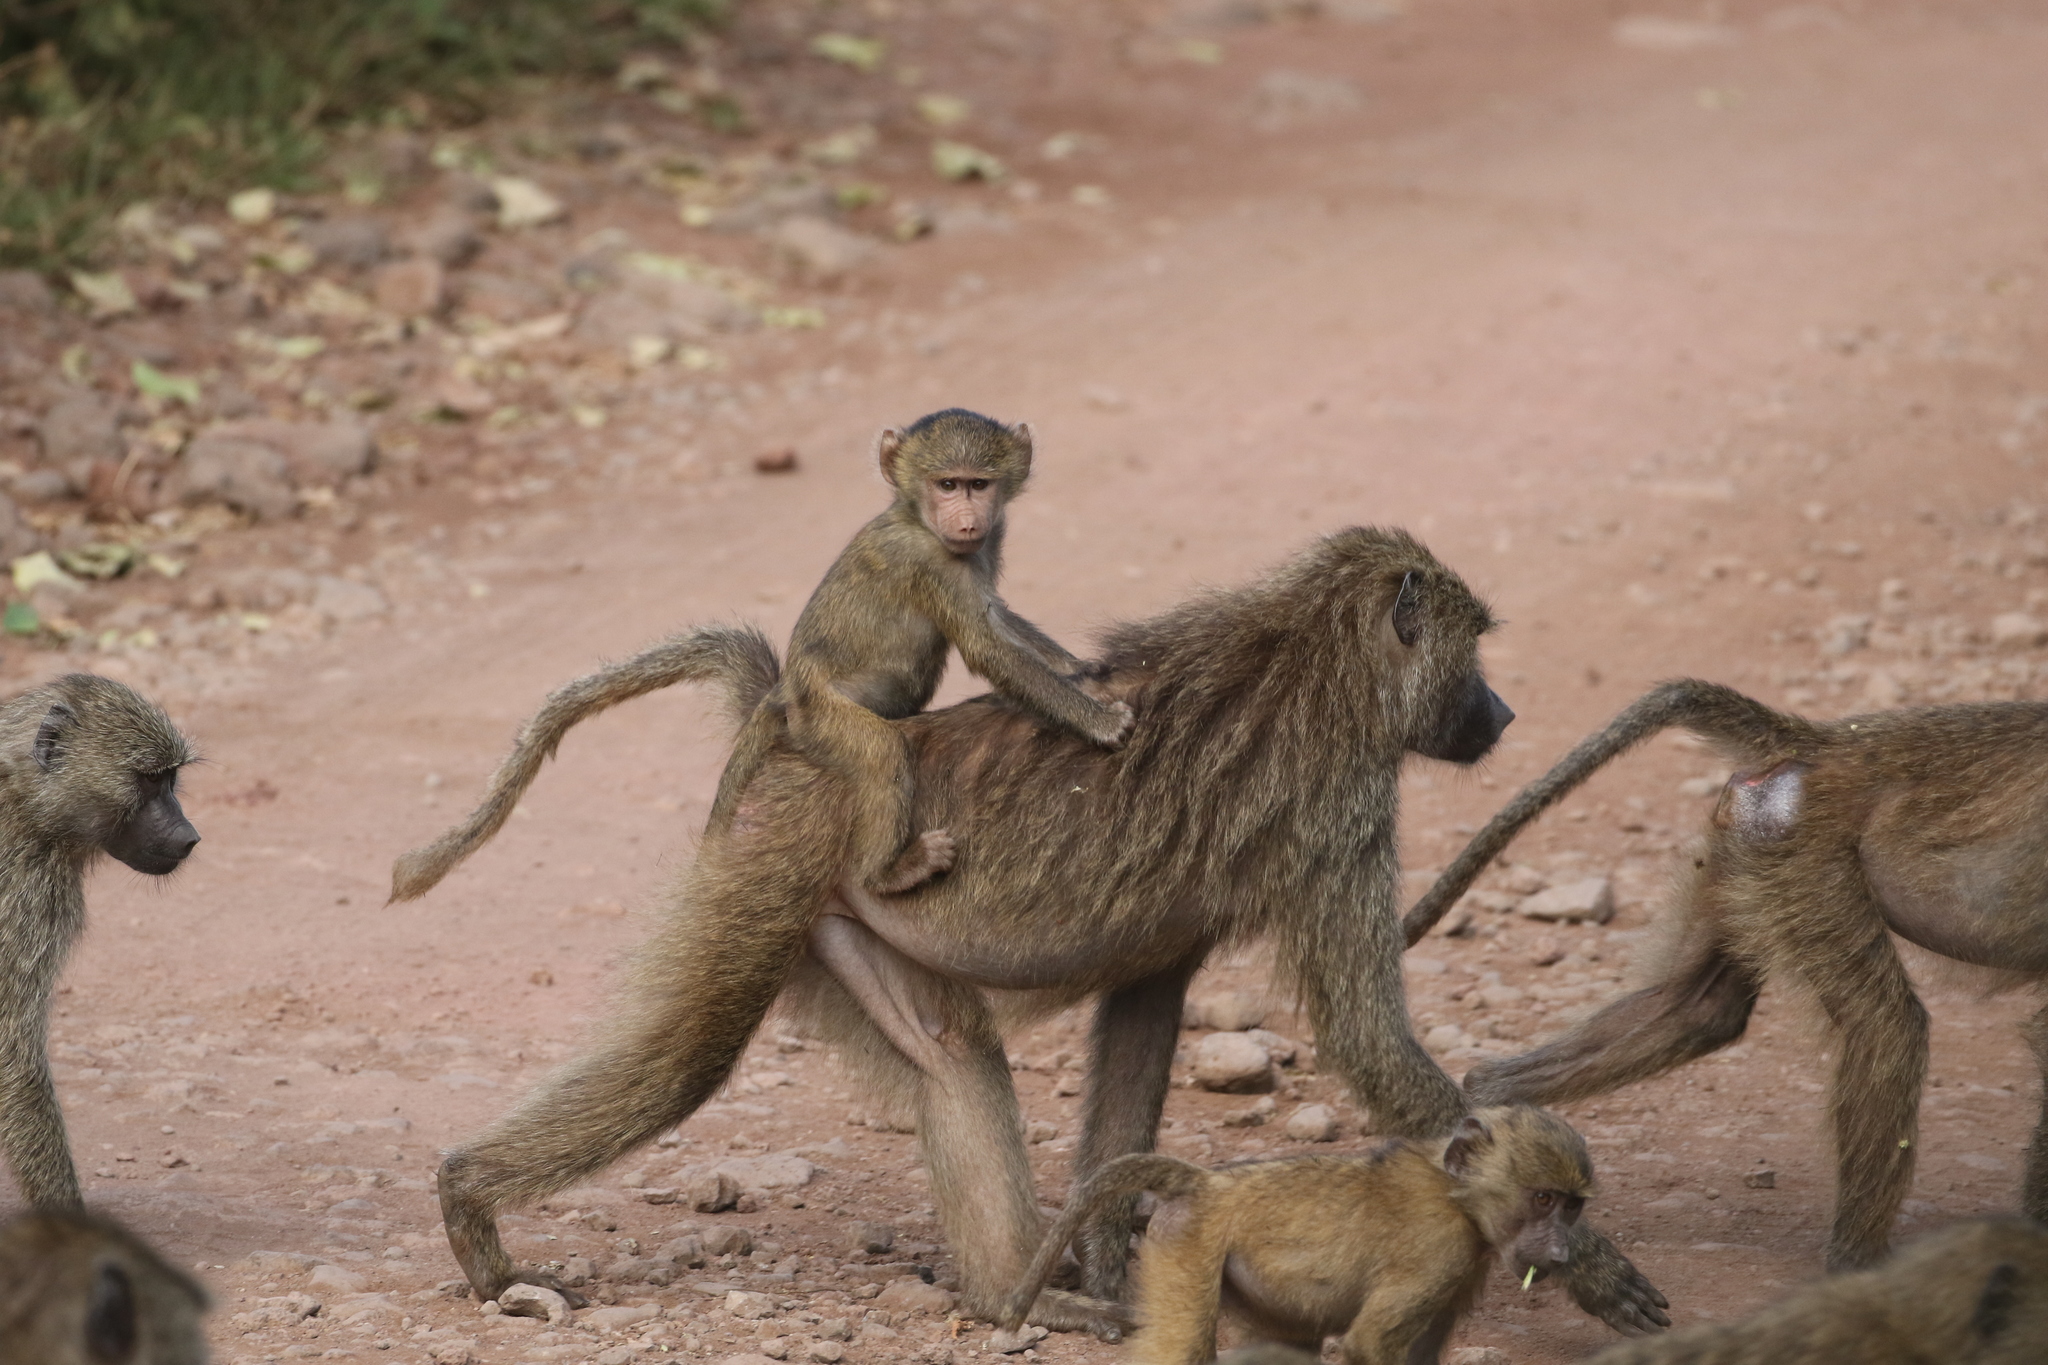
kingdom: Animalia
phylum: Chordata
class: Mammalia
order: Primates
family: Cercopithecidae
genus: Papio
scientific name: Papio anubis
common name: Olive baboon
